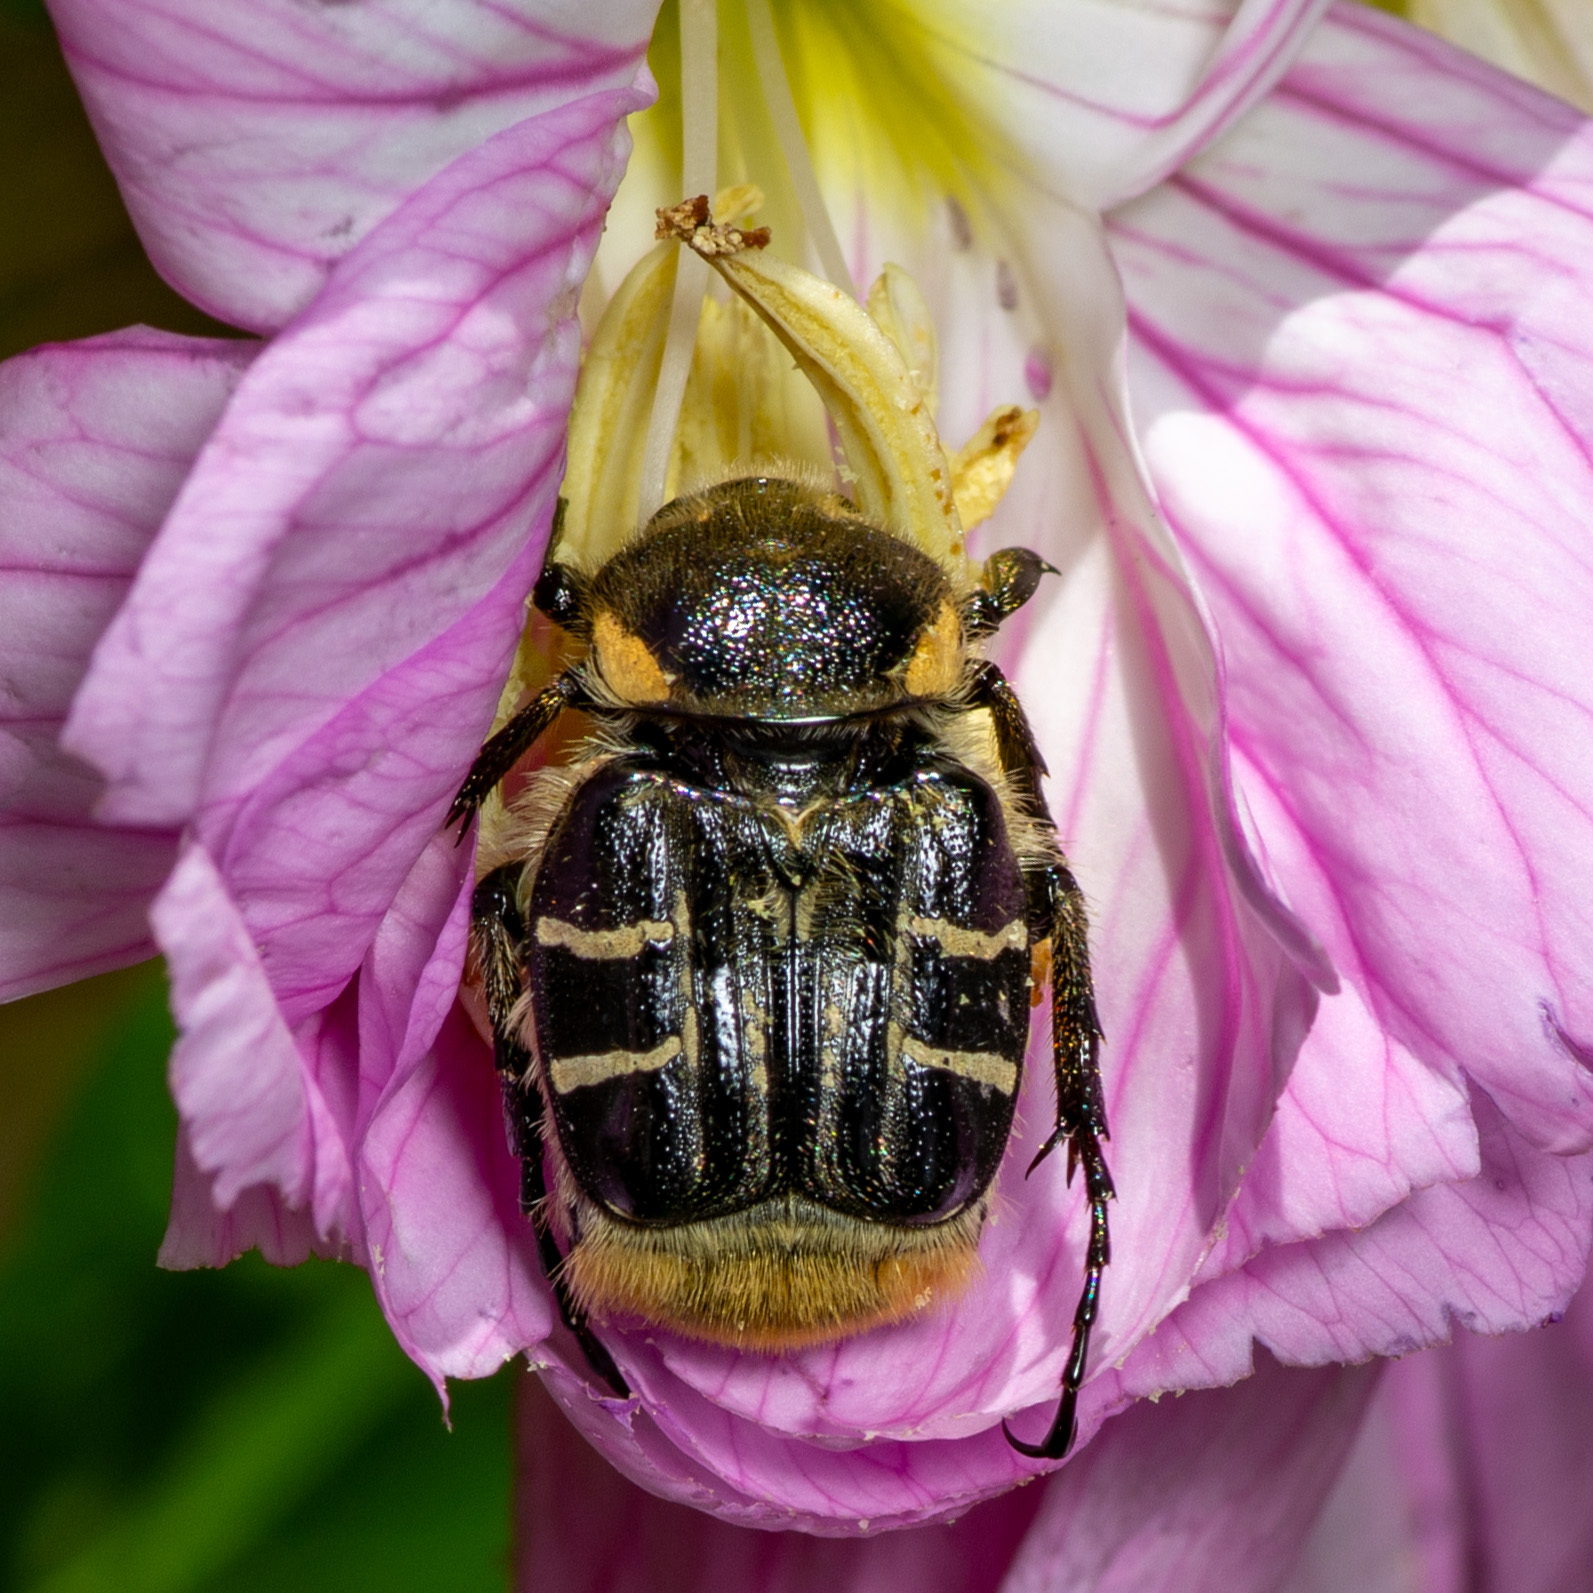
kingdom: Animalia
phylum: Arthropoda
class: Insecta
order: Coleoptera
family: Scarabaeidae
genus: Trichiotinus
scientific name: Trichiotinus texanus
